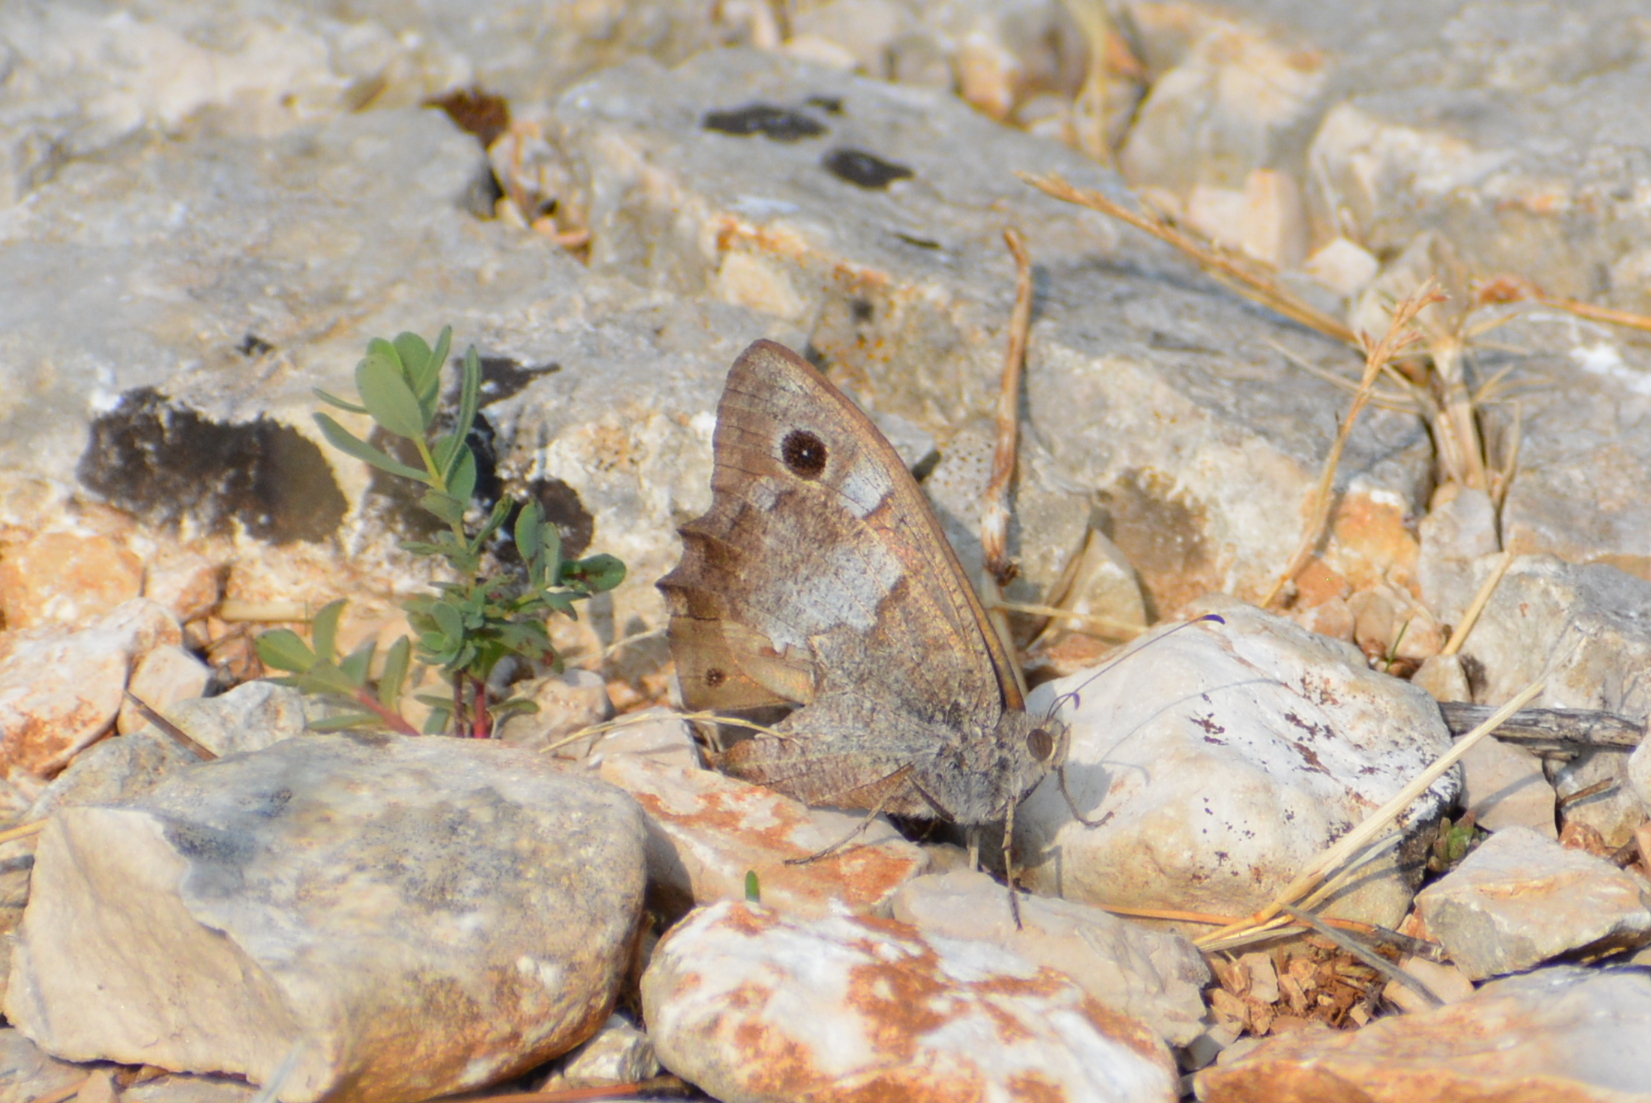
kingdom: Animalia
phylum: Arthropoda
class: Insecta
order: Lepidoptera
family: Nymphalidae
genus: Hipparchia
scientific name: Hipparchia statilinus
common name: Tree grayling
